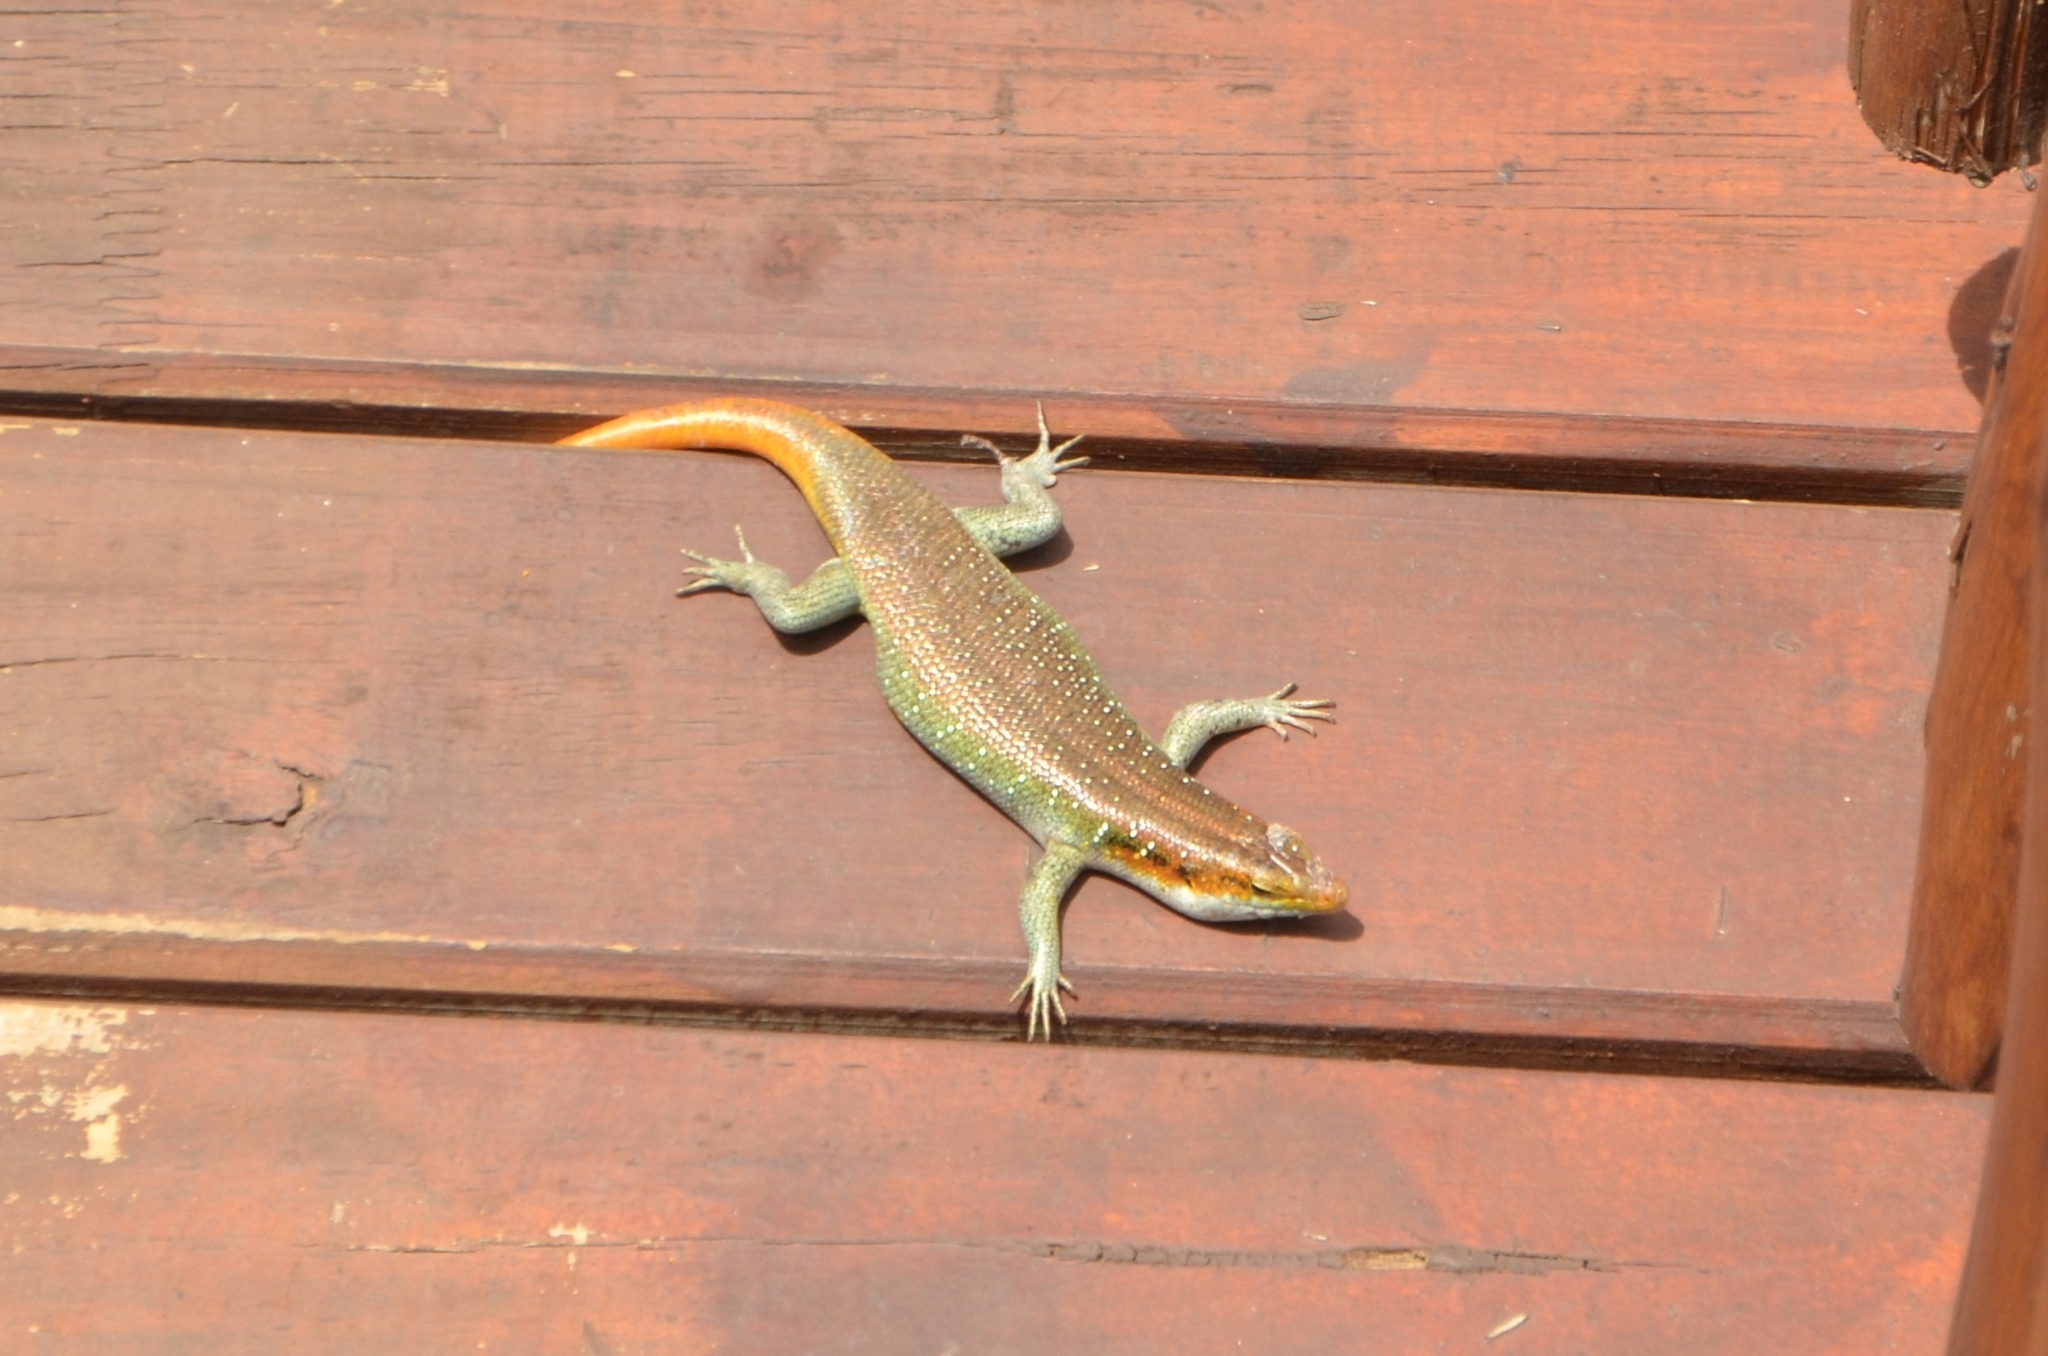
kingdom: Animalia
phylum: Chordata
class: Squamata
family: Scincidae
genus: Trachylepis
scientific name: Trachylepis margaritifera
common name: Rainbow skink
